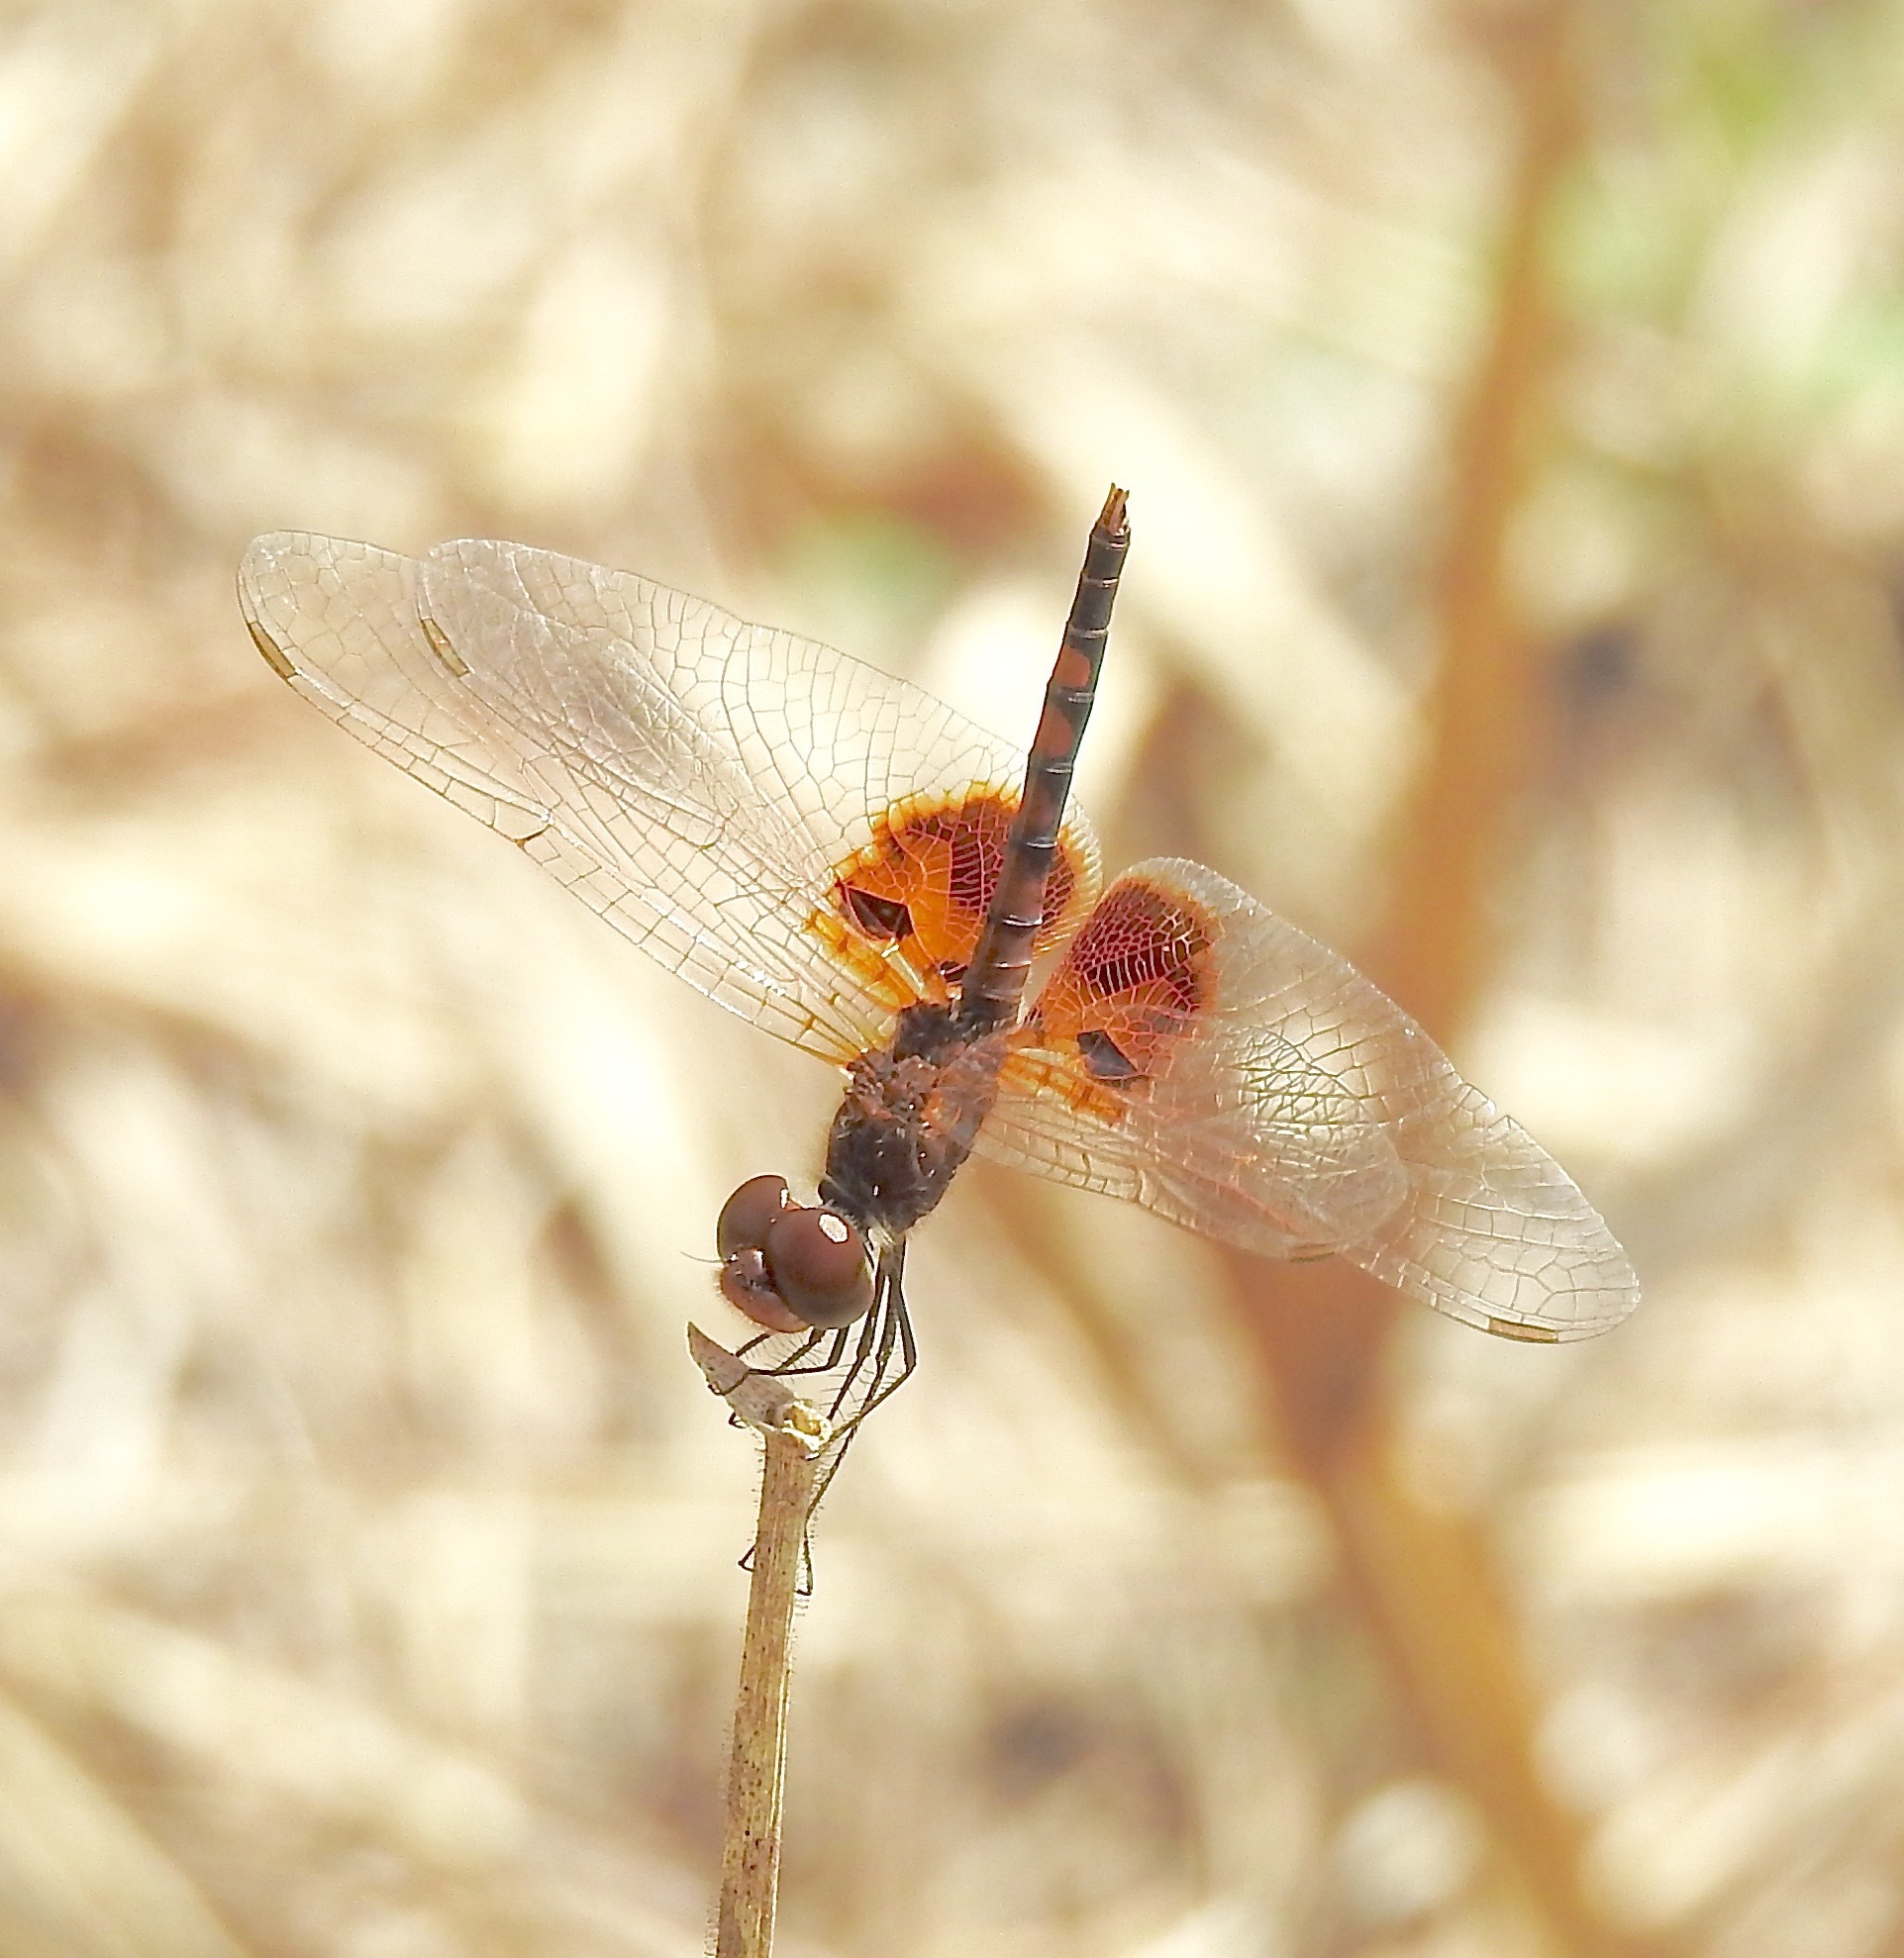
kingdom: Animalia
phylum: Arthropoda
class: Insecta
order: Odonata
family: Libellulidae
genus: Celithemis
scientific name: Celithemis amanda
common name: Amanda's pennant
